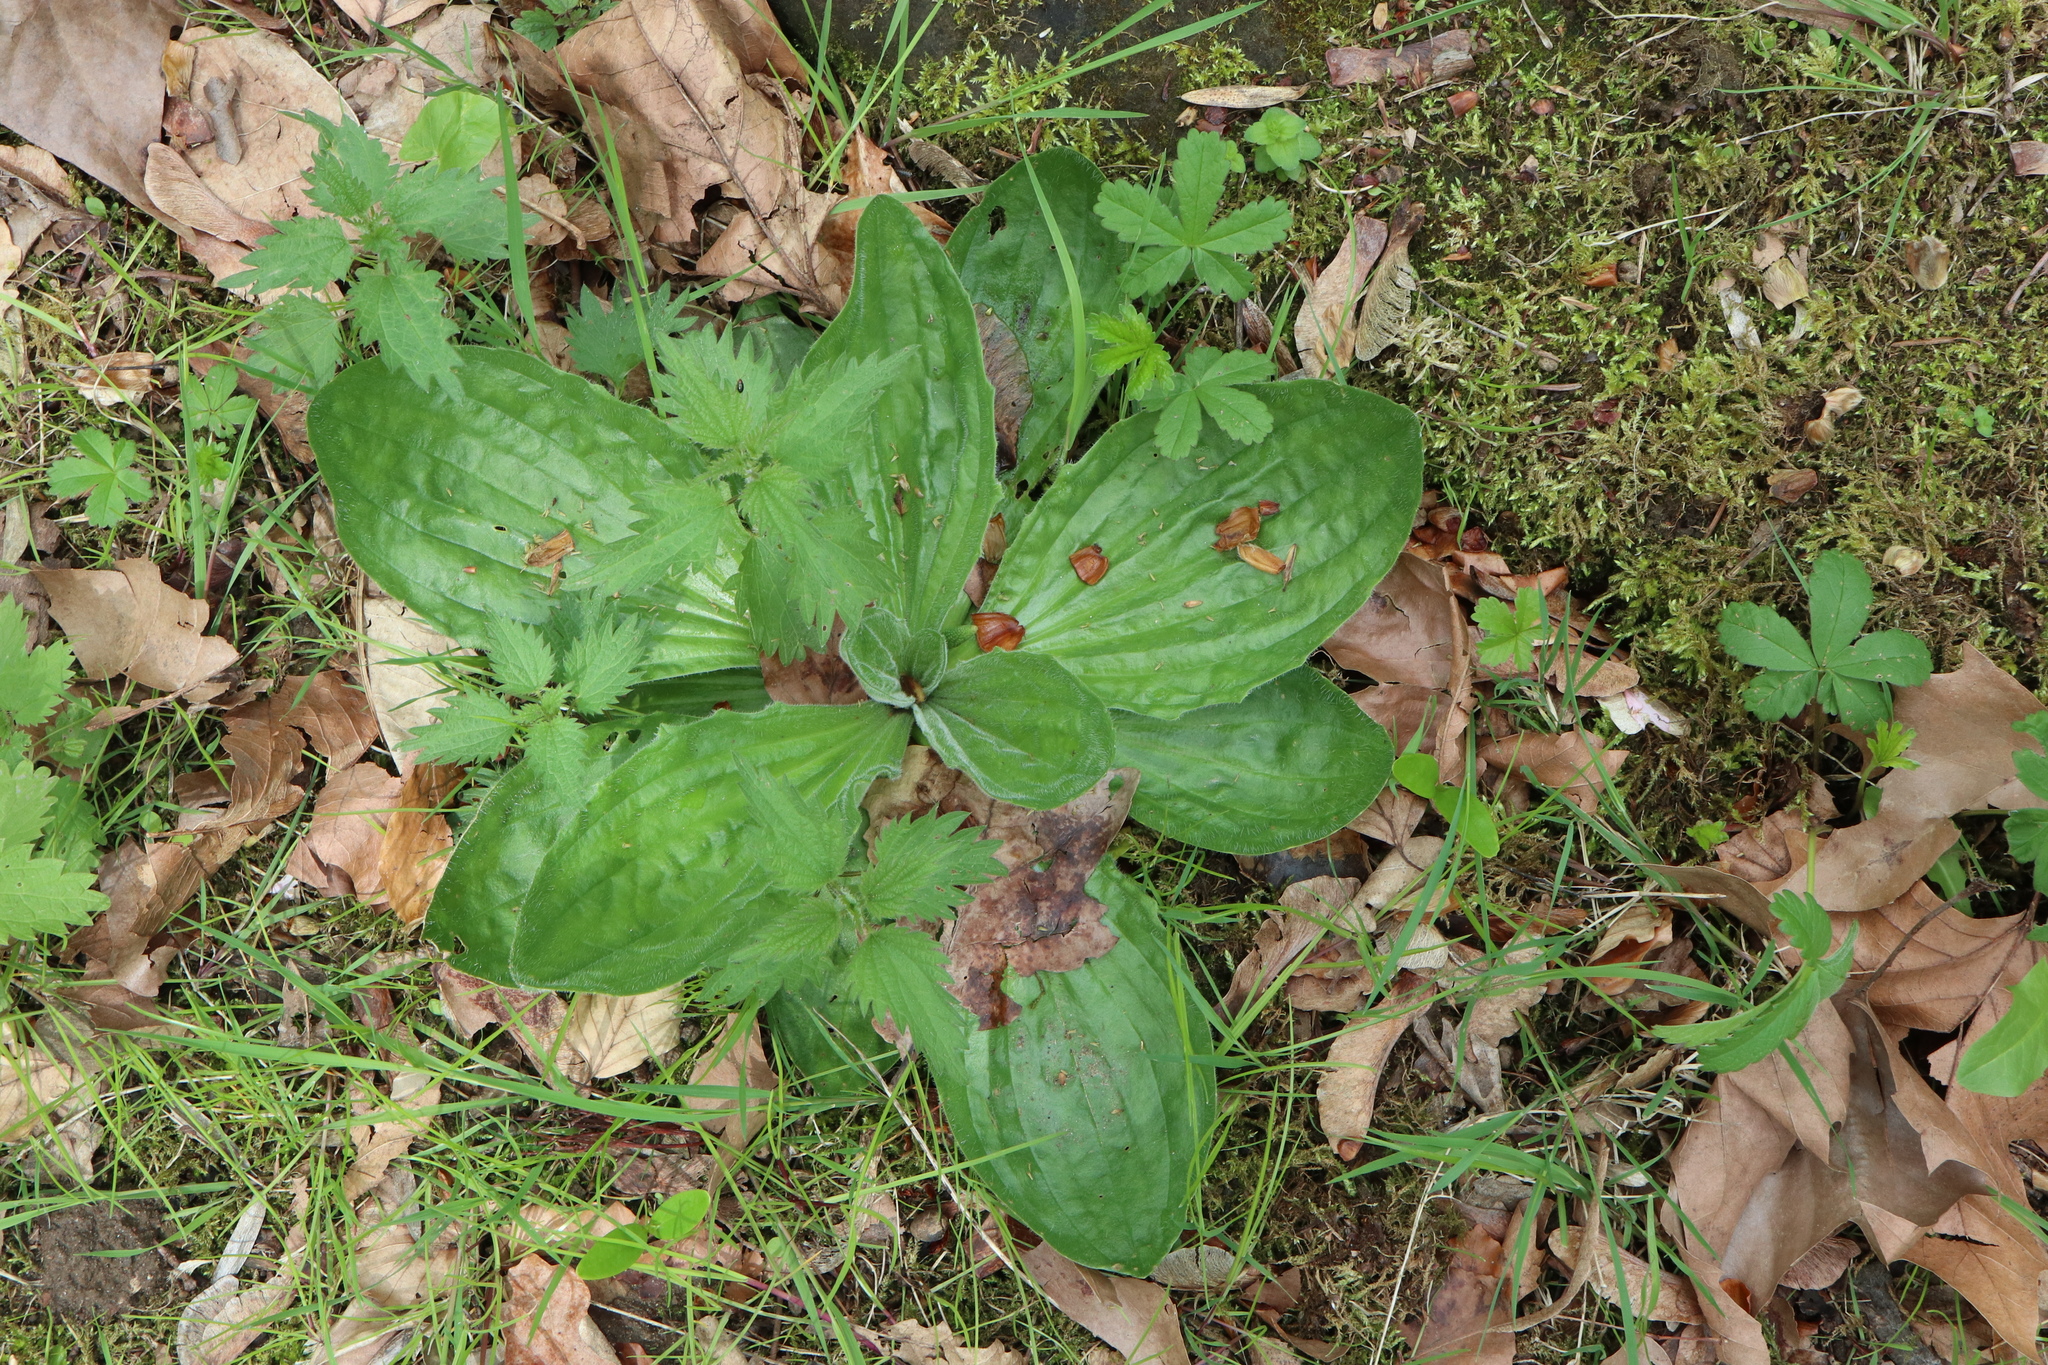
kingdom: Plantae
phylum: Tracheophyta
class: Magnoliopsida
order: Lamiales
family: Plantaginaceae
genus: Plantago
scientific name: Plantago media
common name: Hoary plantain
